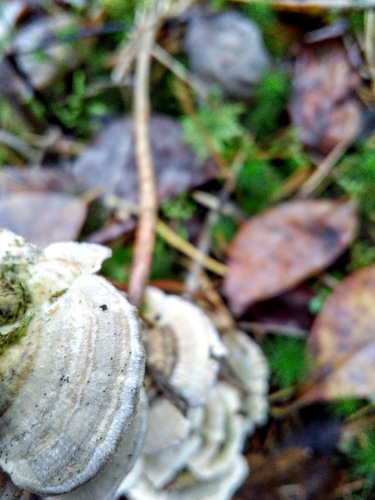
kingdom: Fungi
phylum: Basidiomycota
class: Agaricomycetes
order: Polyporales
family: Polyporaceae
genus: Trametes
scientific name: Trametes hirsuta
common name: Hairy bracket
